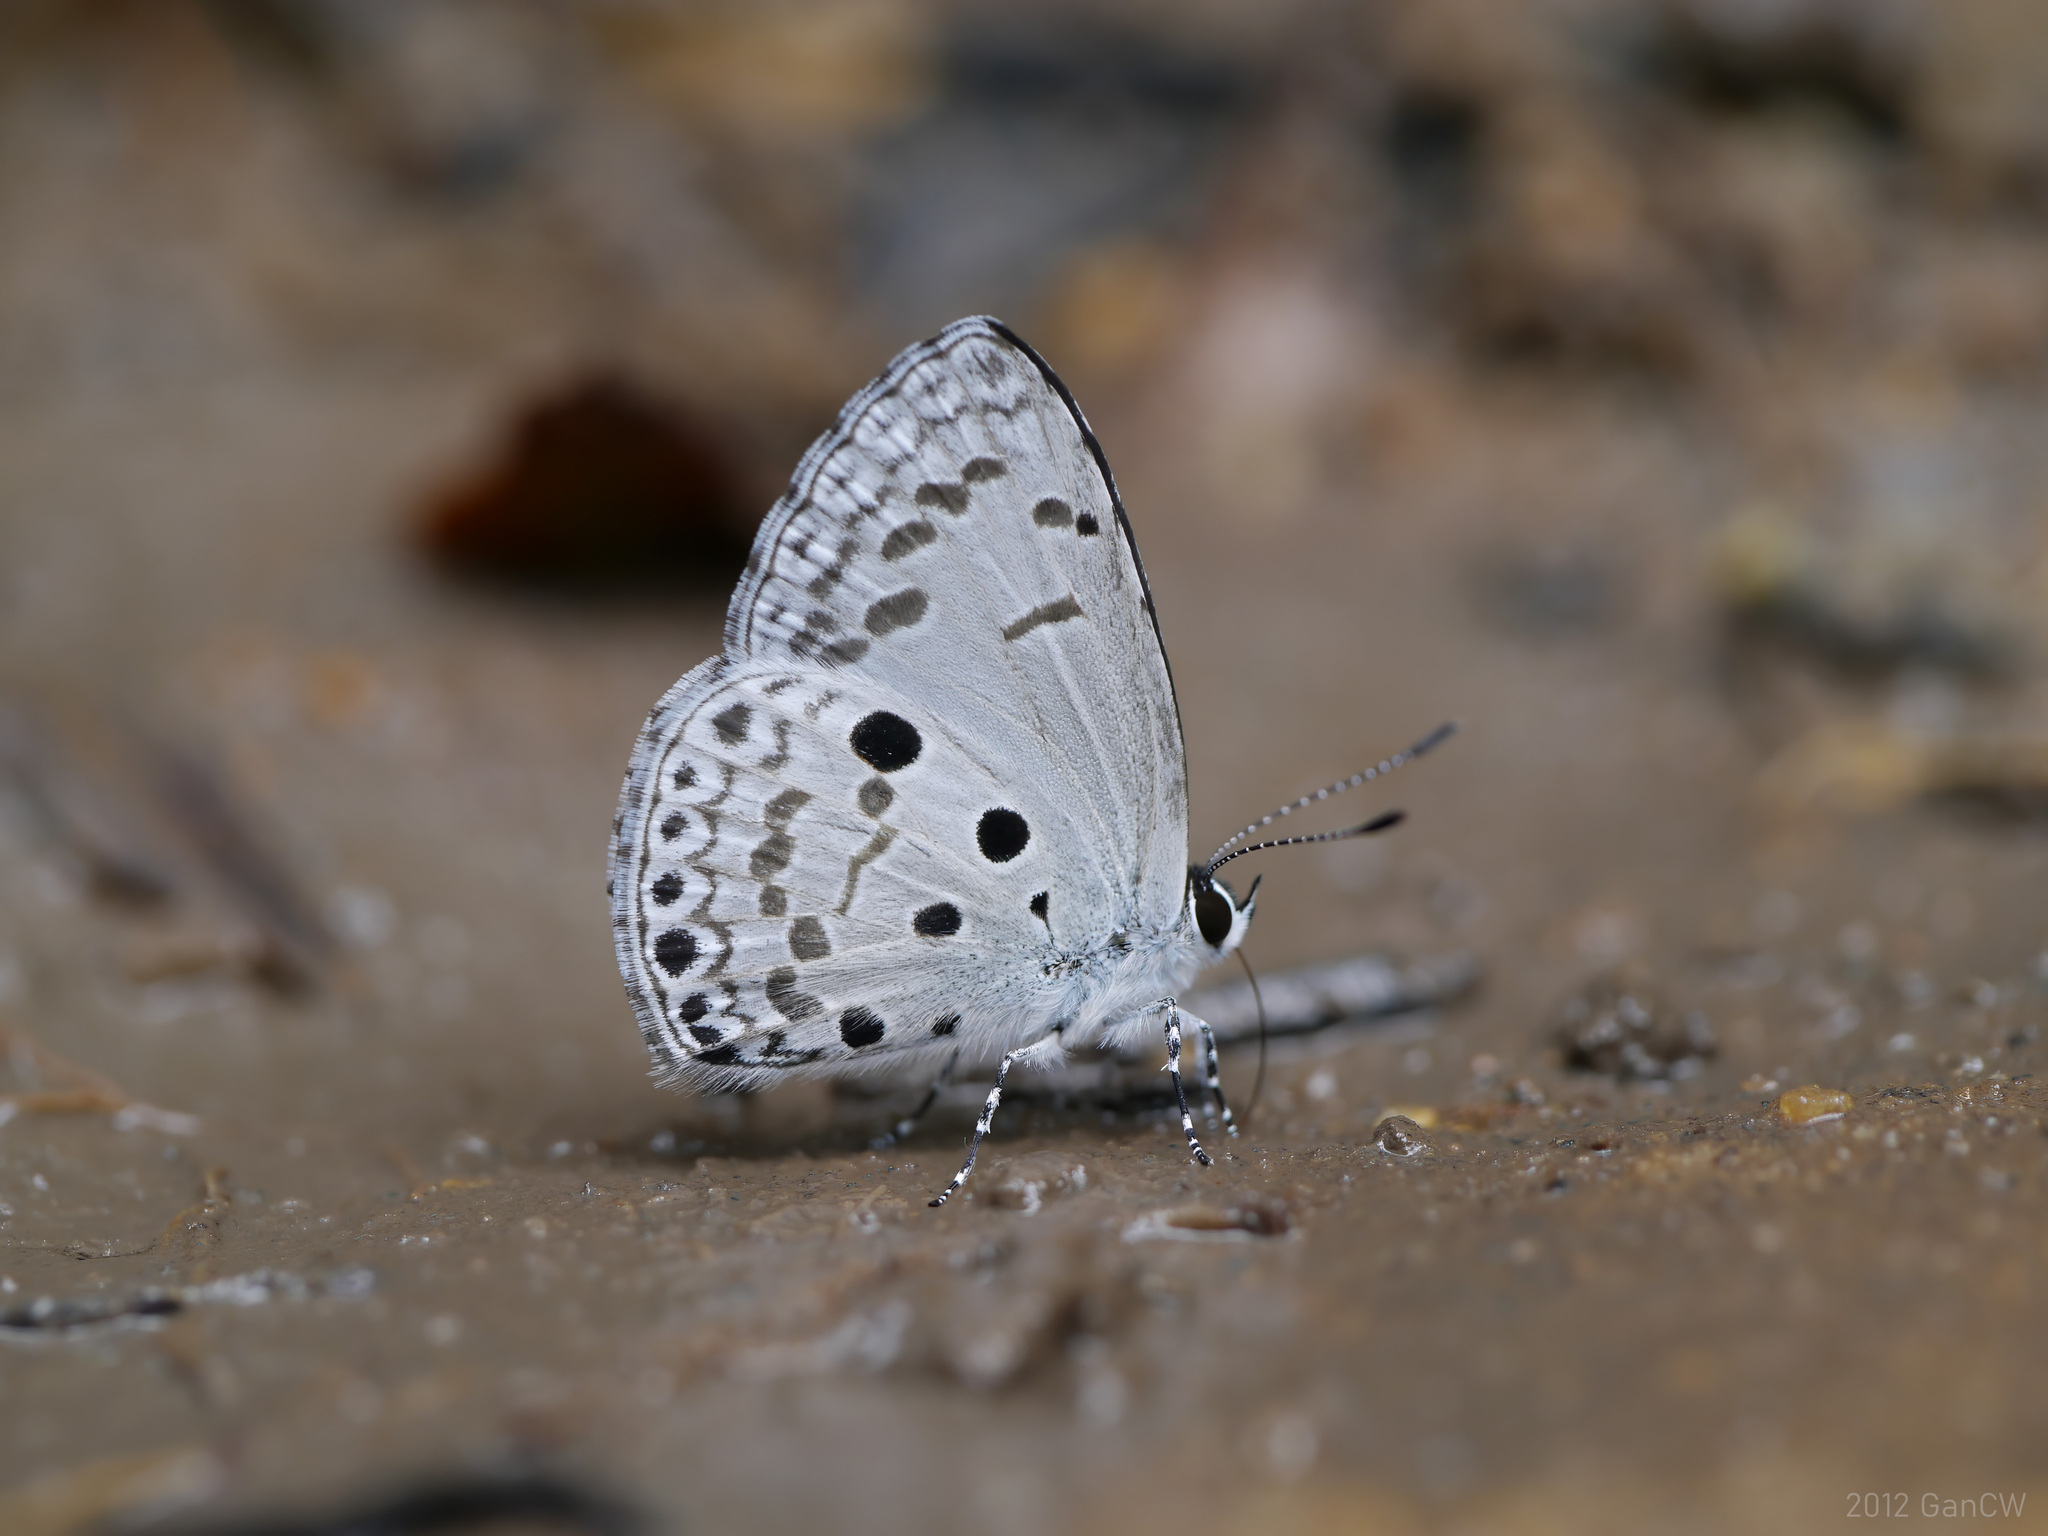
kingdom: Animalia
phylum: Arthropoda
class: Insecta
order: Lepidoptera
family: Lycaenidae
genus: Acytolepis
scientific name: Acytolepis puspa
